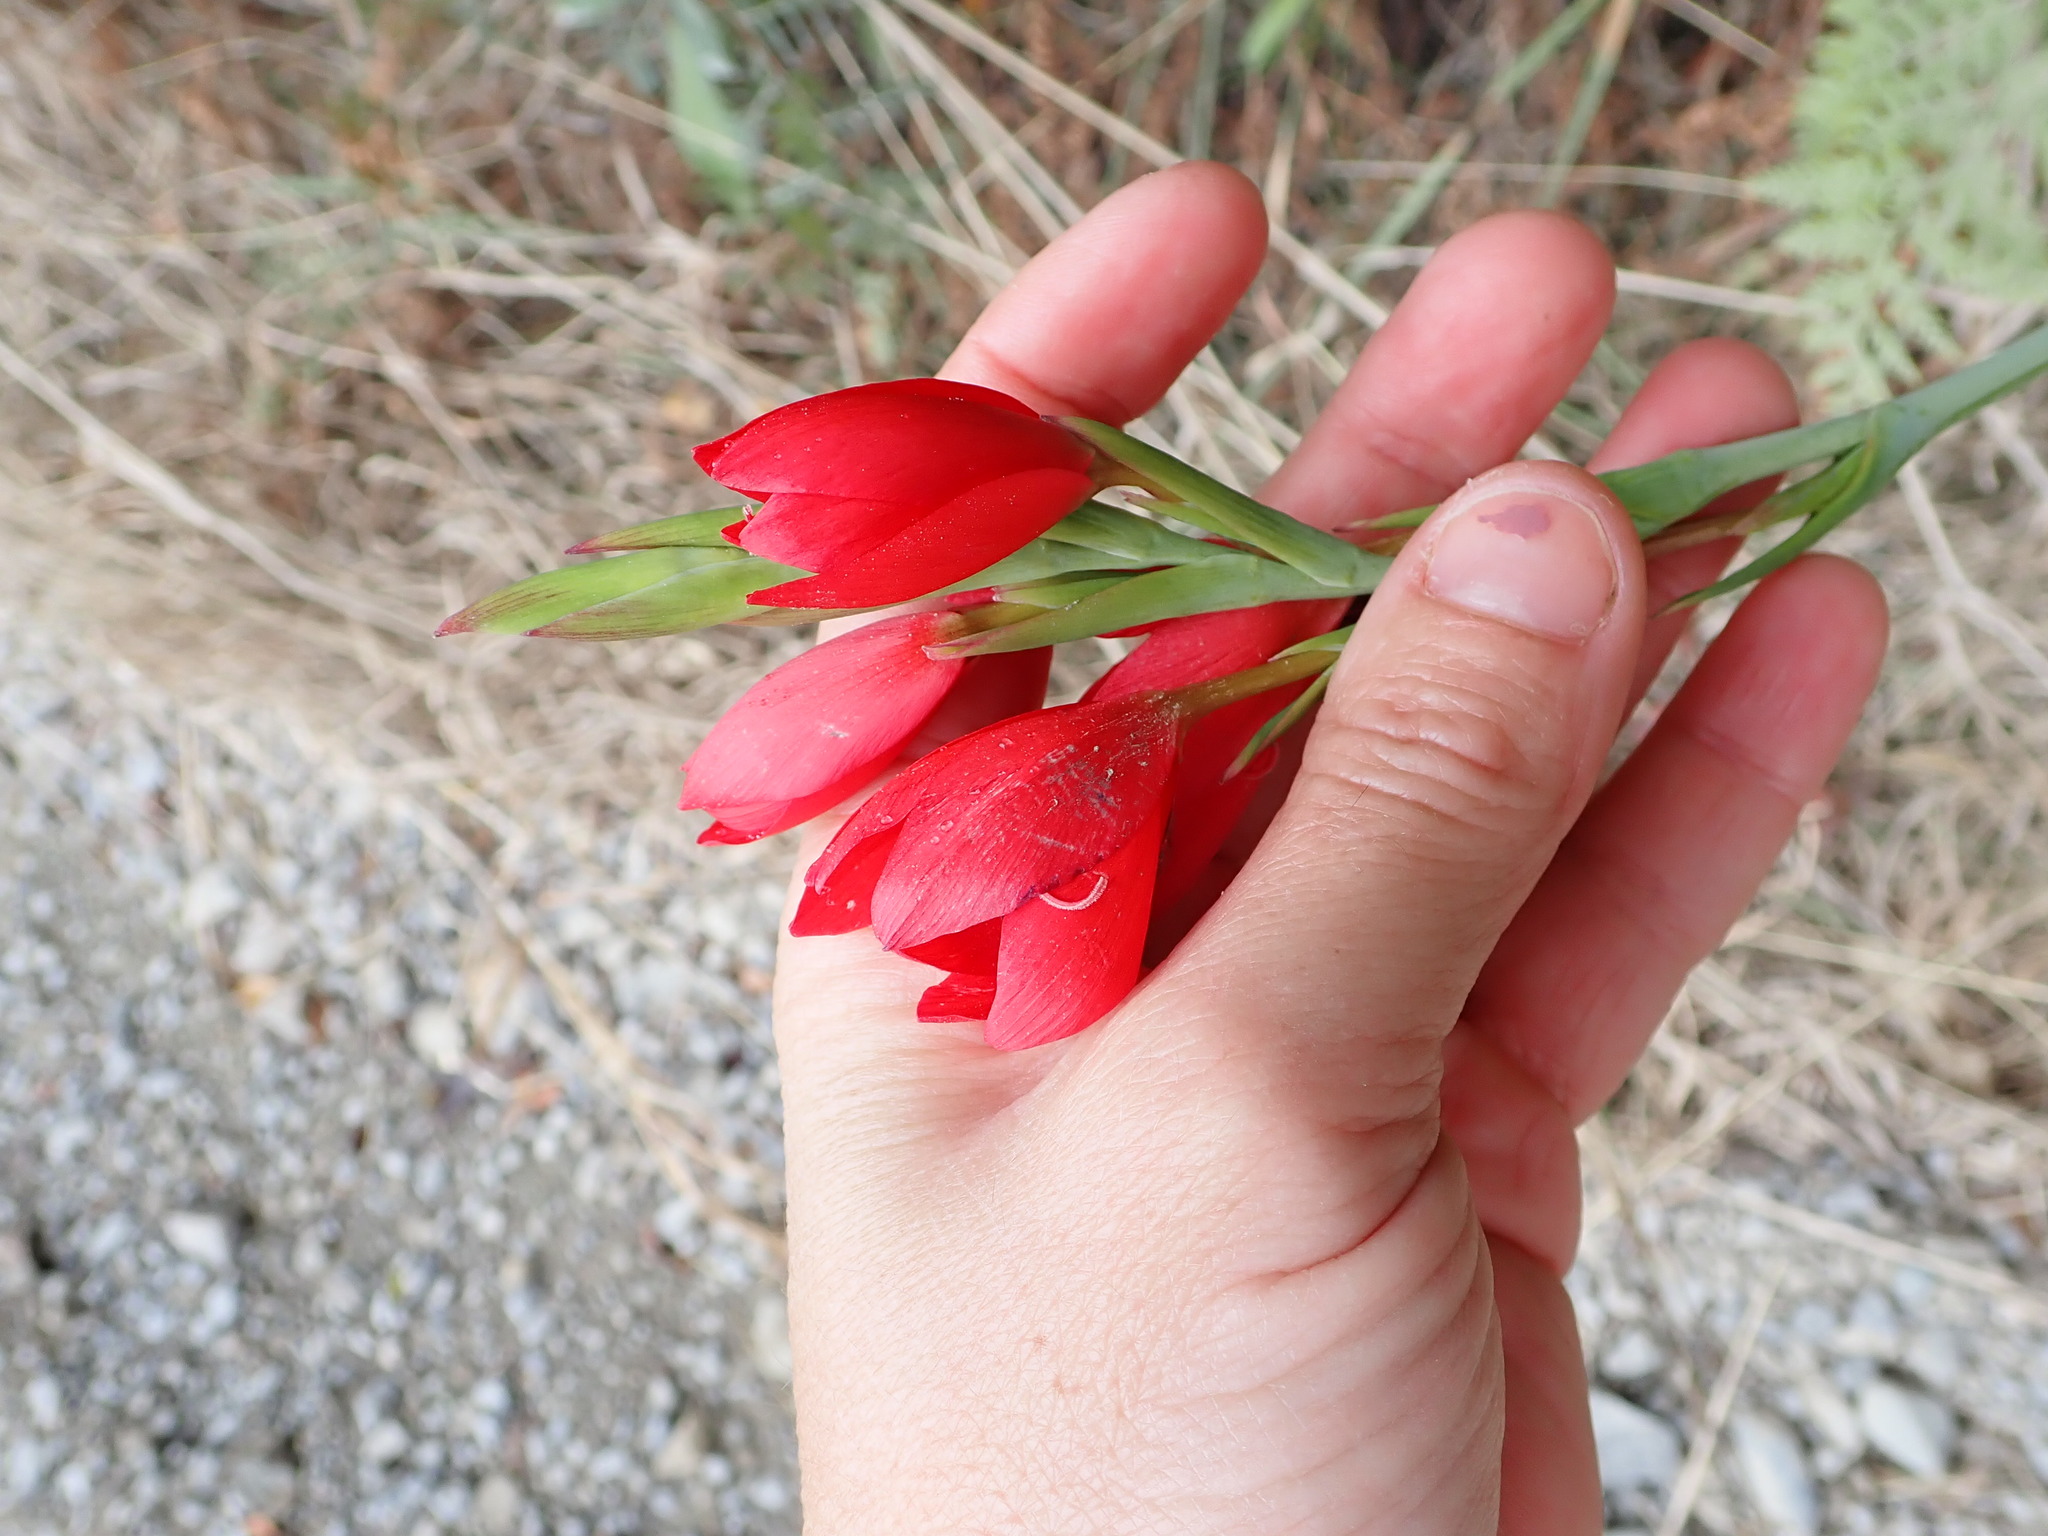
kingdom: Plantae
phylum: Tracheophyta
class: Liliopsida
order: Asparagales
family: Iridaceae
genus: Hesperantha
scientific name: Hesperantha coccinea
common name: River-lily
